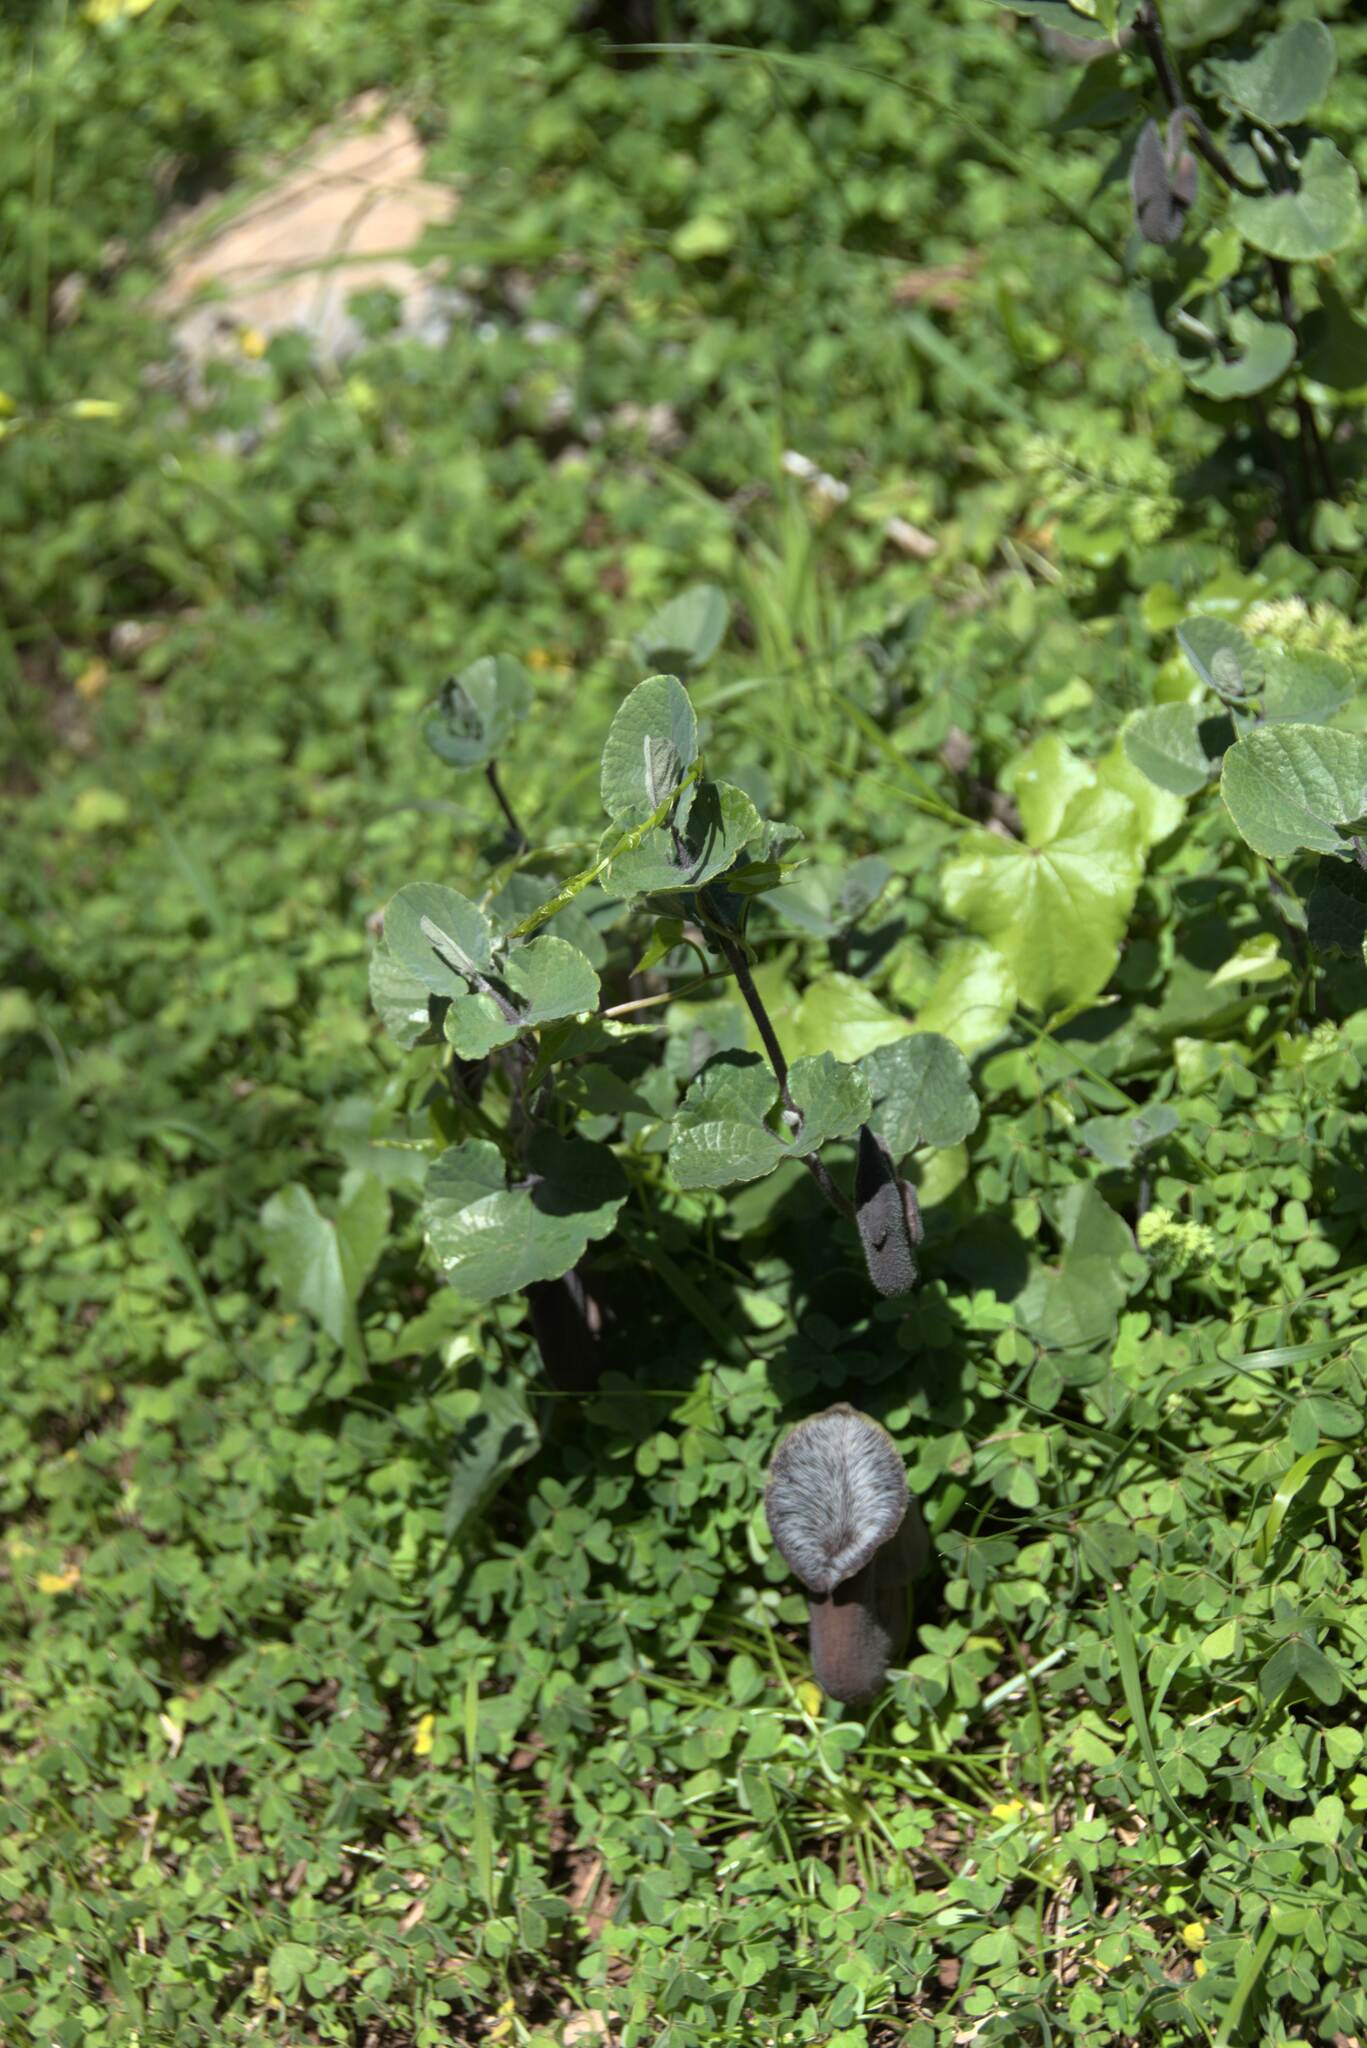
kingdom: Plantae
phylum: Tracheophyta
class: Magnoliopsida
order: Piperales
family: Aristolochiaceae
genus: Aristolochia
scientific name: Aristolochia cretica
